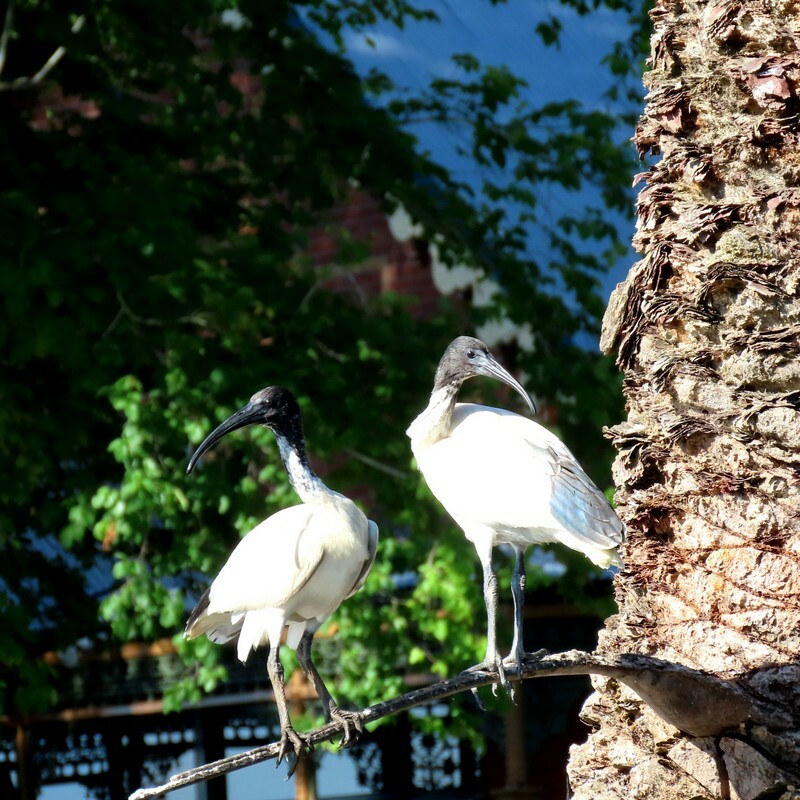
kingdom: Animalia
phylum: Chordata
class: Aves
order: Pelecaniformes
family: Threskiornithidae
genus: Threskiornis
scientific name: Threskiornis molucca
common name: Australian white ibis
